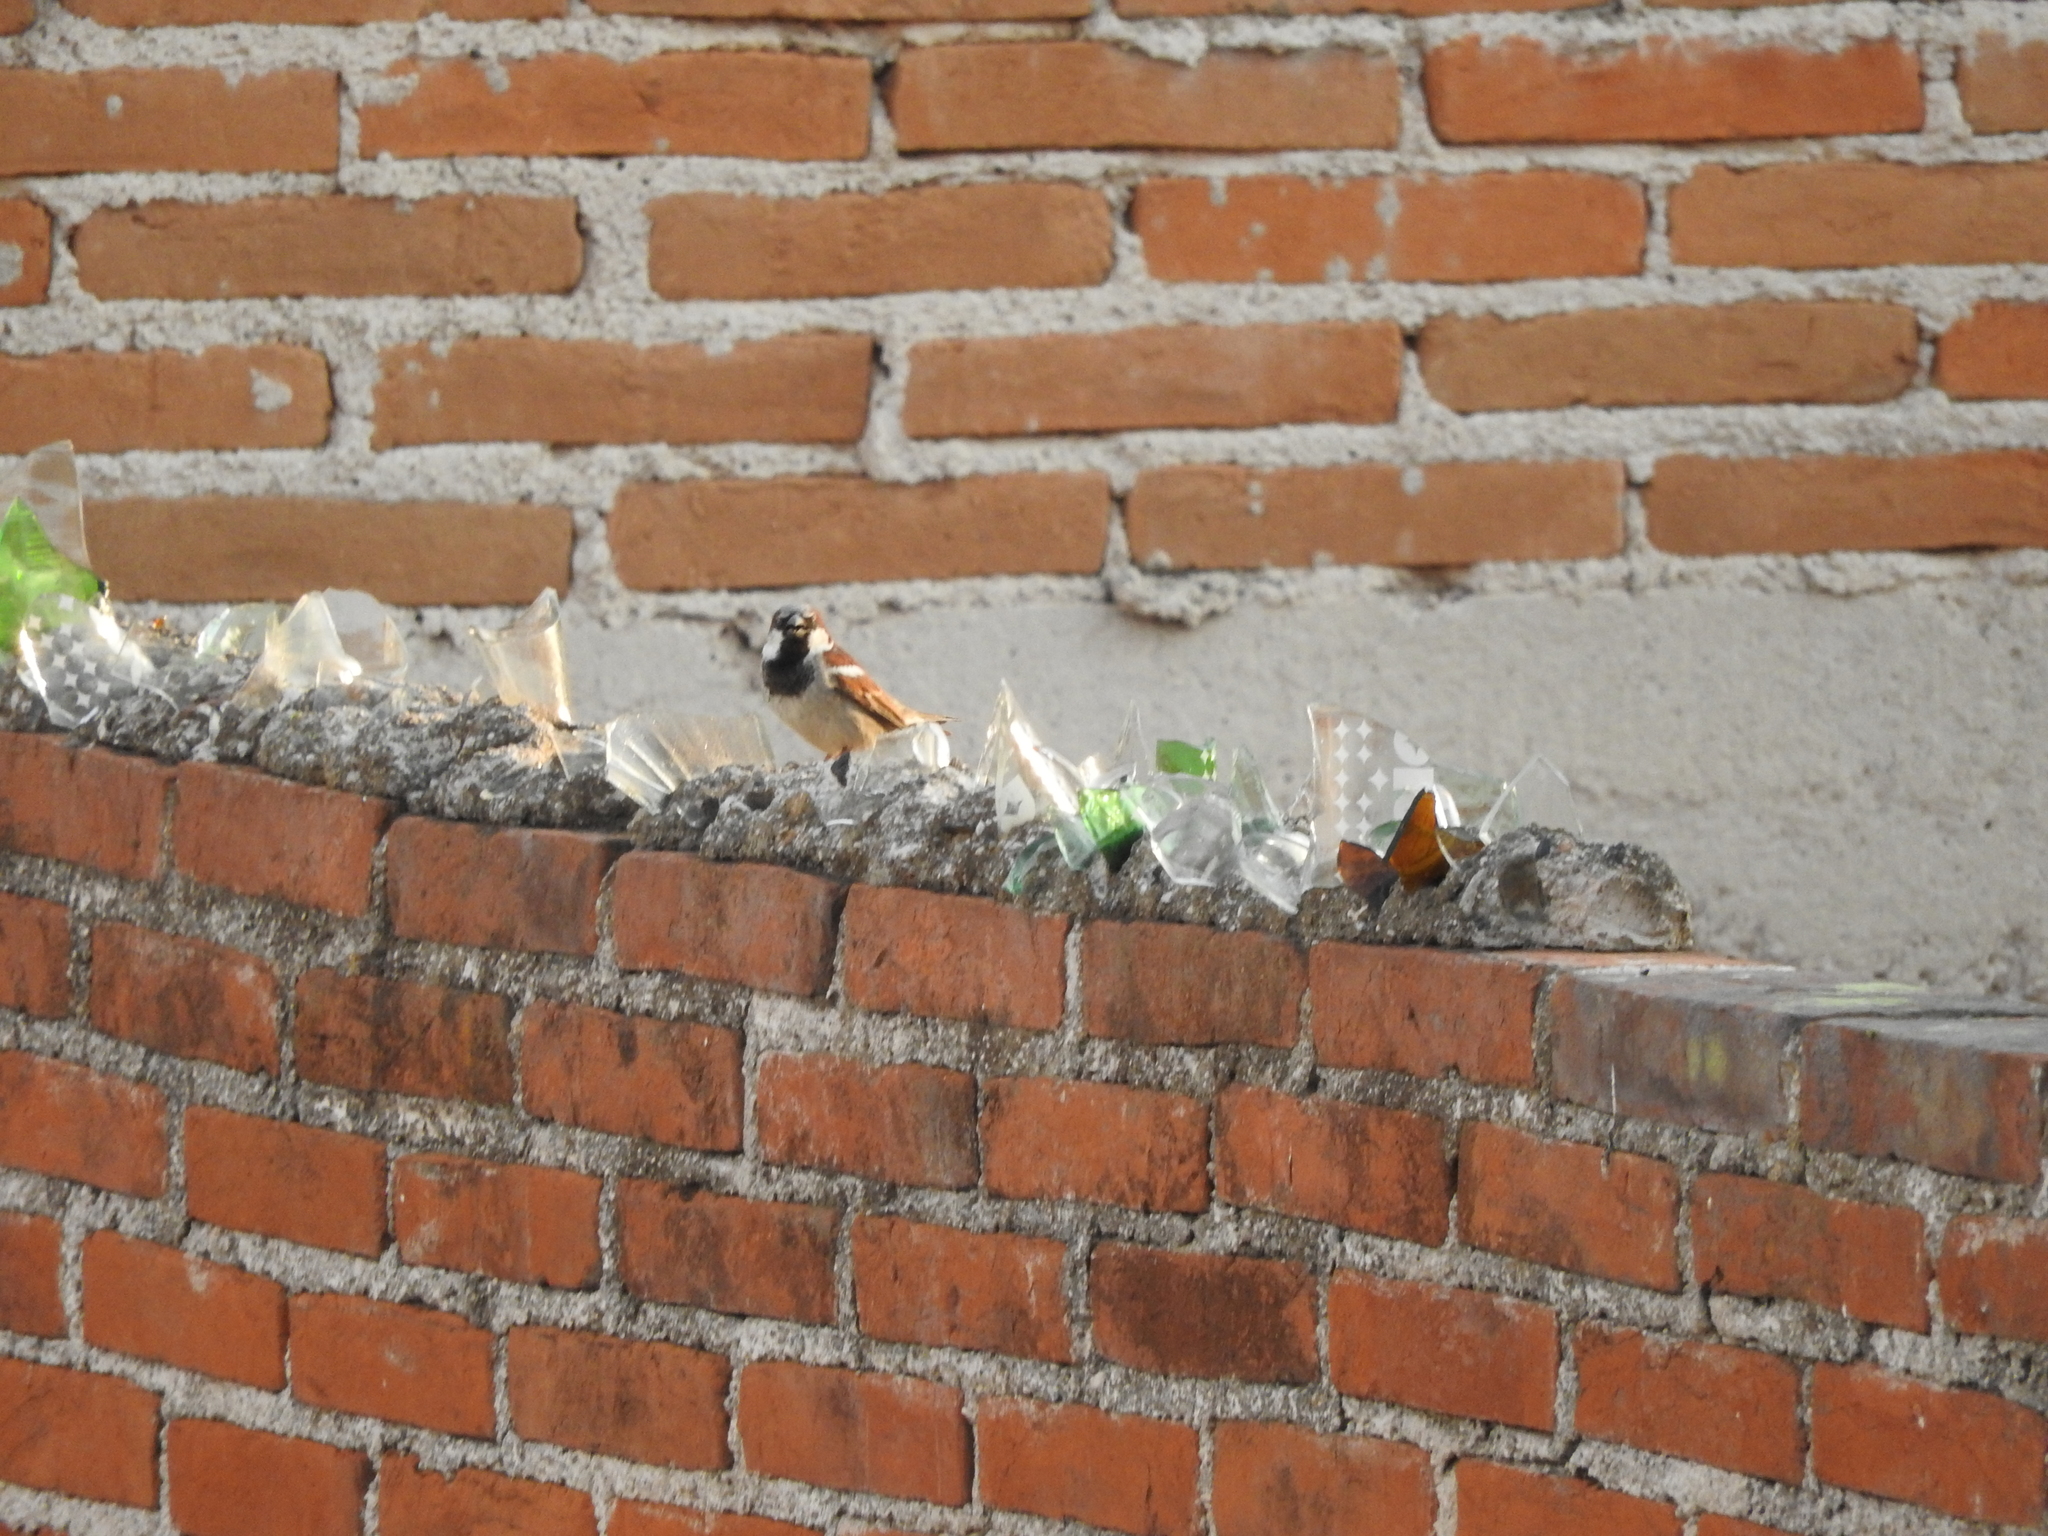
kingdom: Animalia
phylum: Chordata
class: Aves
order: Passeriformes
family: Passeridae
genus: Passer
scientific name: Passer domesticus
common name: House sparrow
